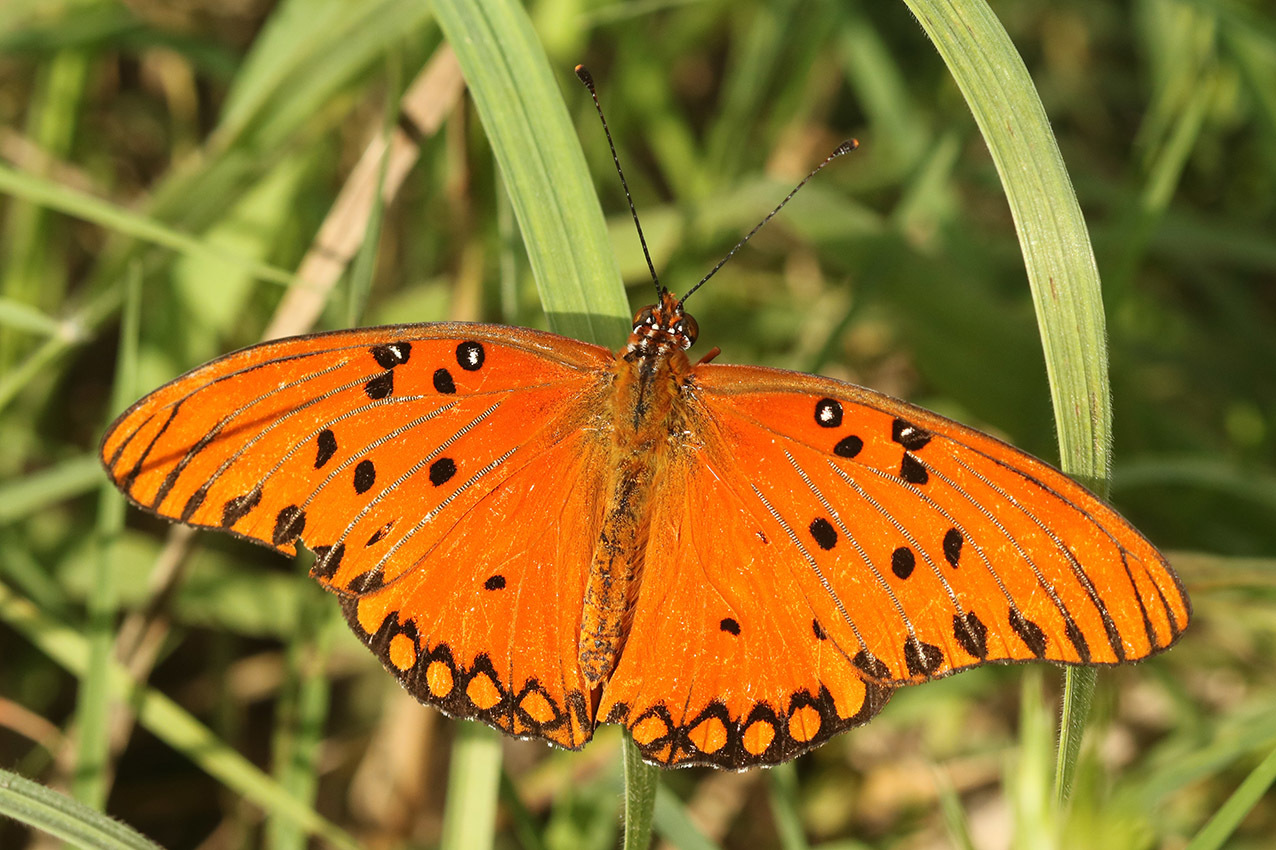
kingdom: Animalia
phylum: Arthropoda
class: Insecta
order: Lepidoptera
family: Nymphalidae
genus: Dione
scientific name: Dione vanillae
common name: Gulf fritillary
